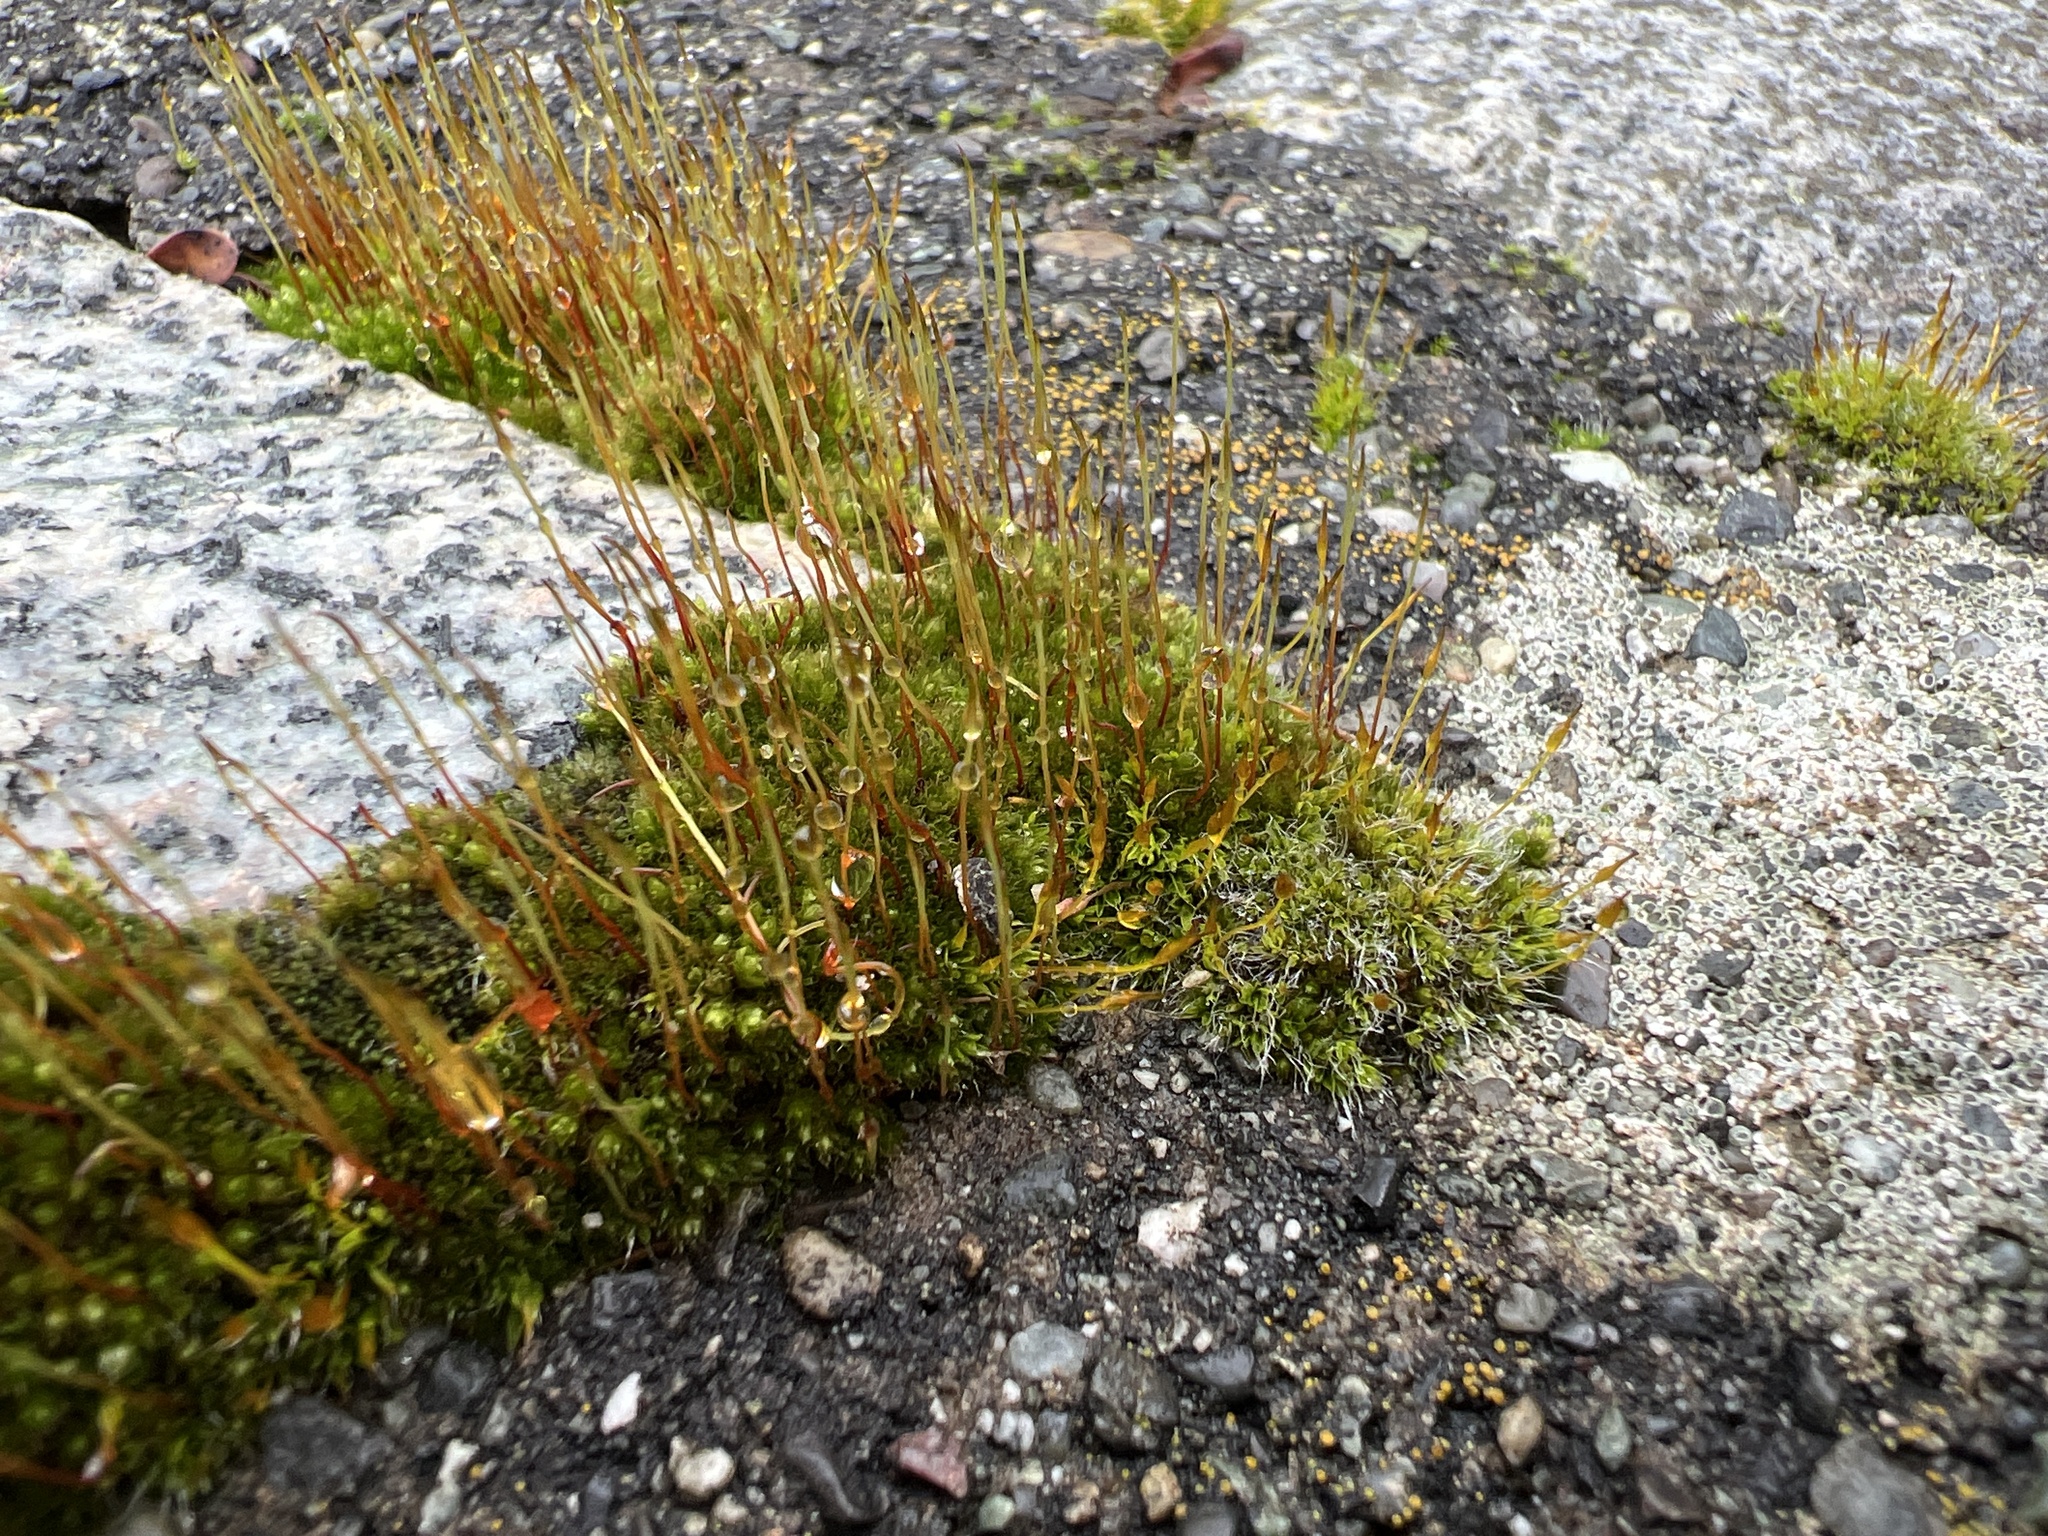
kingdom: Plantae
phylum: Bryophyta
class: Bryopsida
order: Pottiales
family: Pottiaceae
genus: Tortula
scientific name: Tortula muralis
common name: Wall screw-moss
